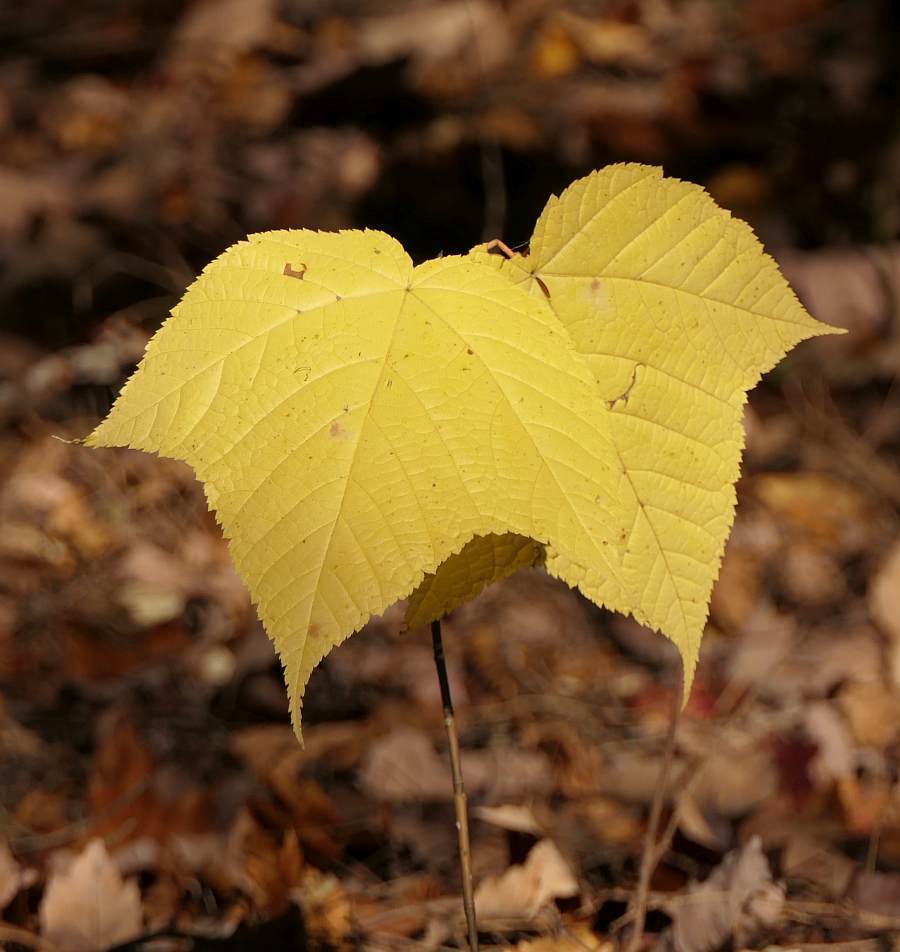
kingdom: Plantae
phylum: Tracheophyta
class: Magnoliopsida
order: Sapindales
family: Sapindaceae
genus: Acer
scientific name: Acer pensylvanicum
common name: Moosewood
